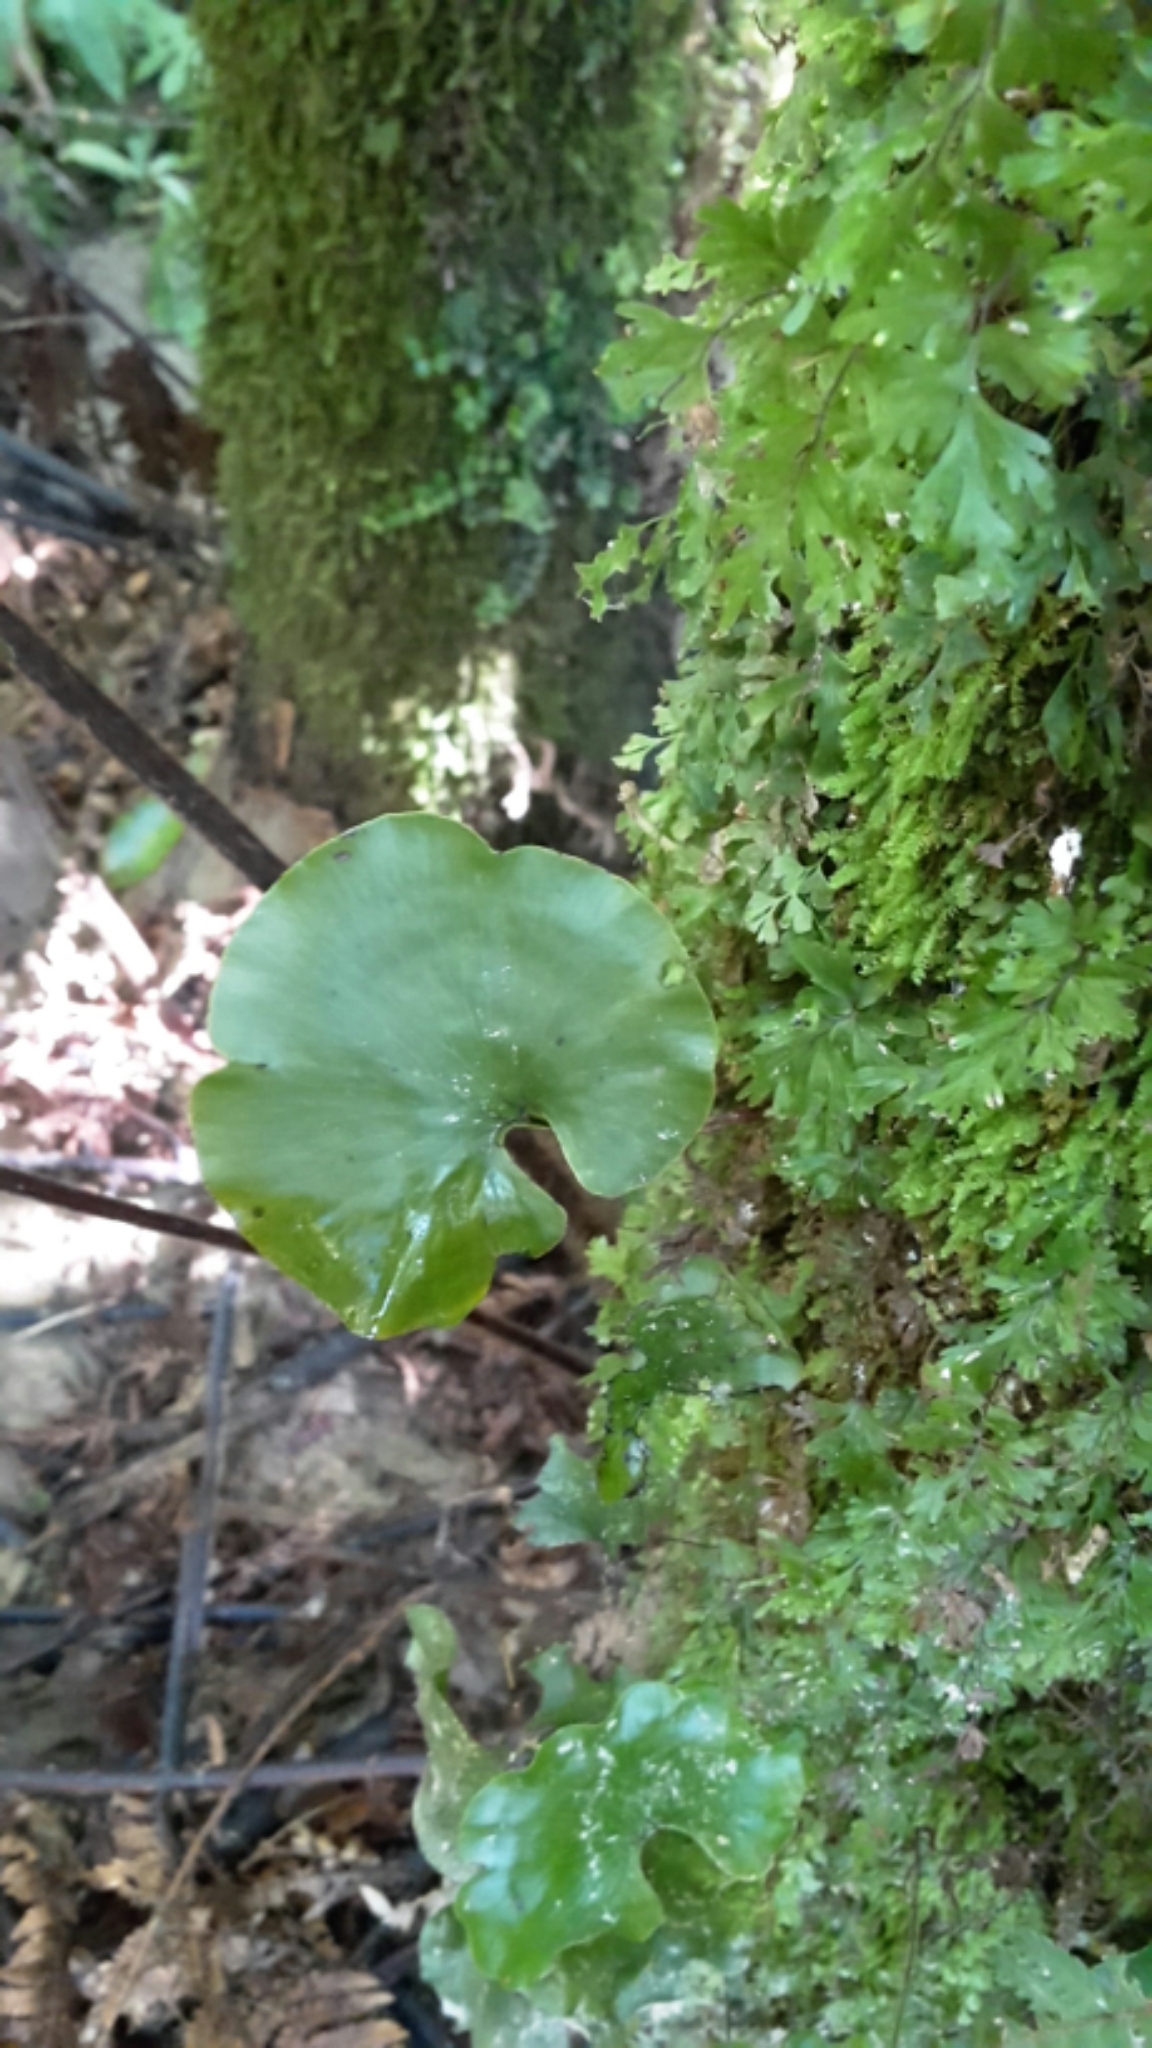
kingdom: Plantae
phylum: Tracheophyta
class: Polypodiopsida
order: Hymenophyllales
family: Hymenophyllaceae
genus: Hymenophyllum
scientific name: Hymenophyllum nephrophyllum
